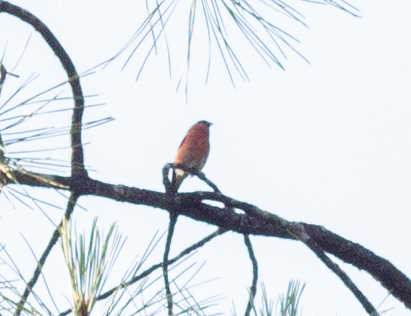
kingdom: Animalia
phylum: Chordata
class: Aves
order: Passeriformes
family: Fringillidae
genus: Pyrrhula
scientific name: Pyrrhula pyrrhula
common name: Eurasian bullfinch
